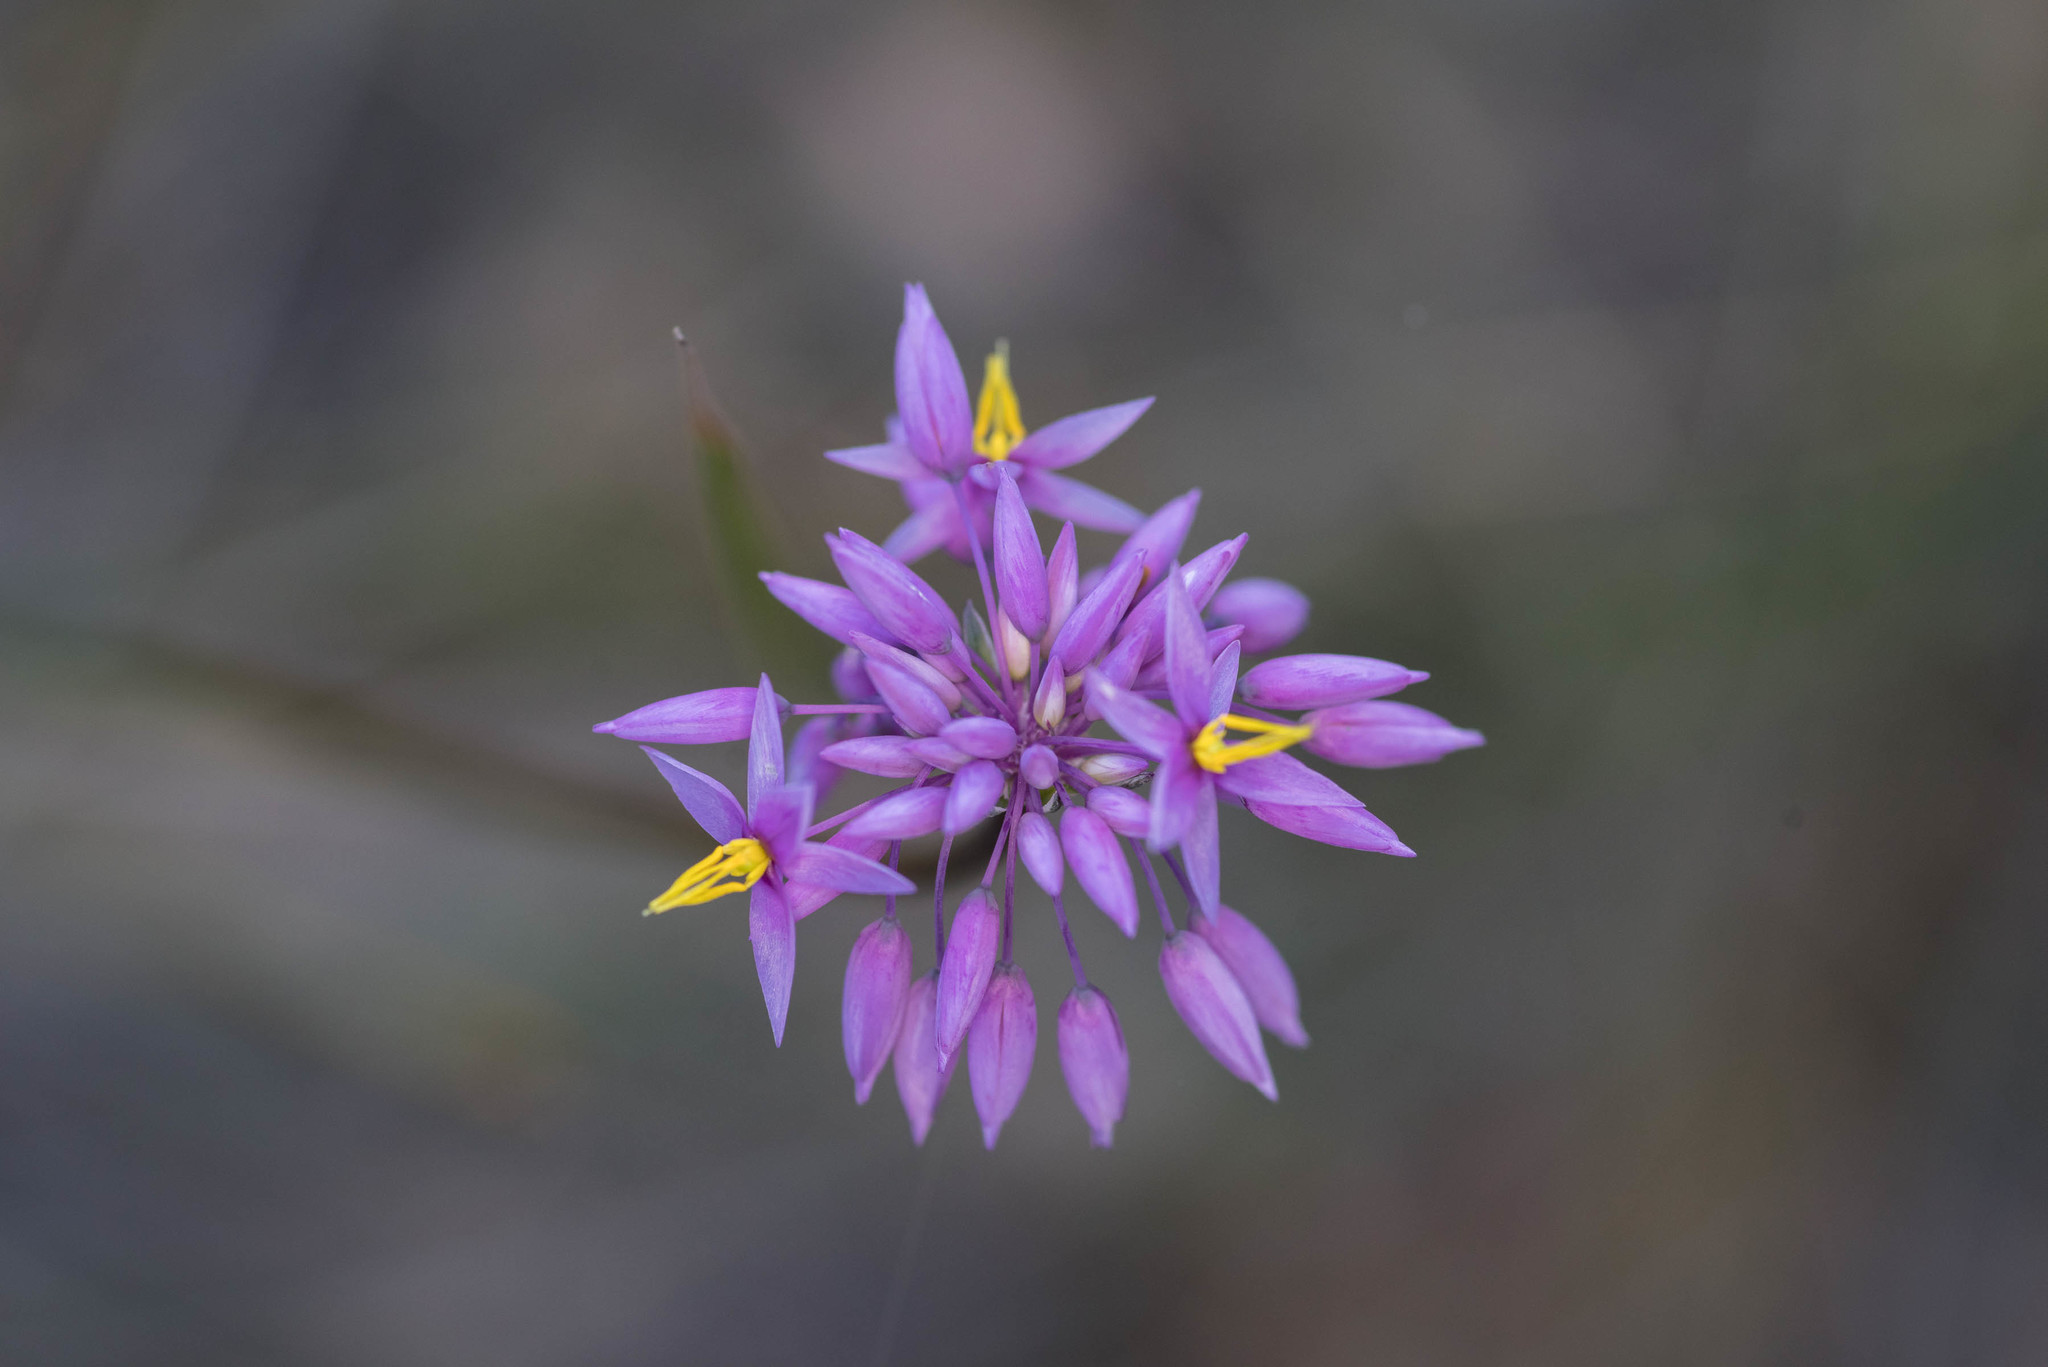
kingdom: Plantae
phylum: Tracheophyta
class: Liliopsida
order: Asparagales
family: Asparagaceae
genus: Sowerbaea
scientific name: Sowerbaea laxiflora
